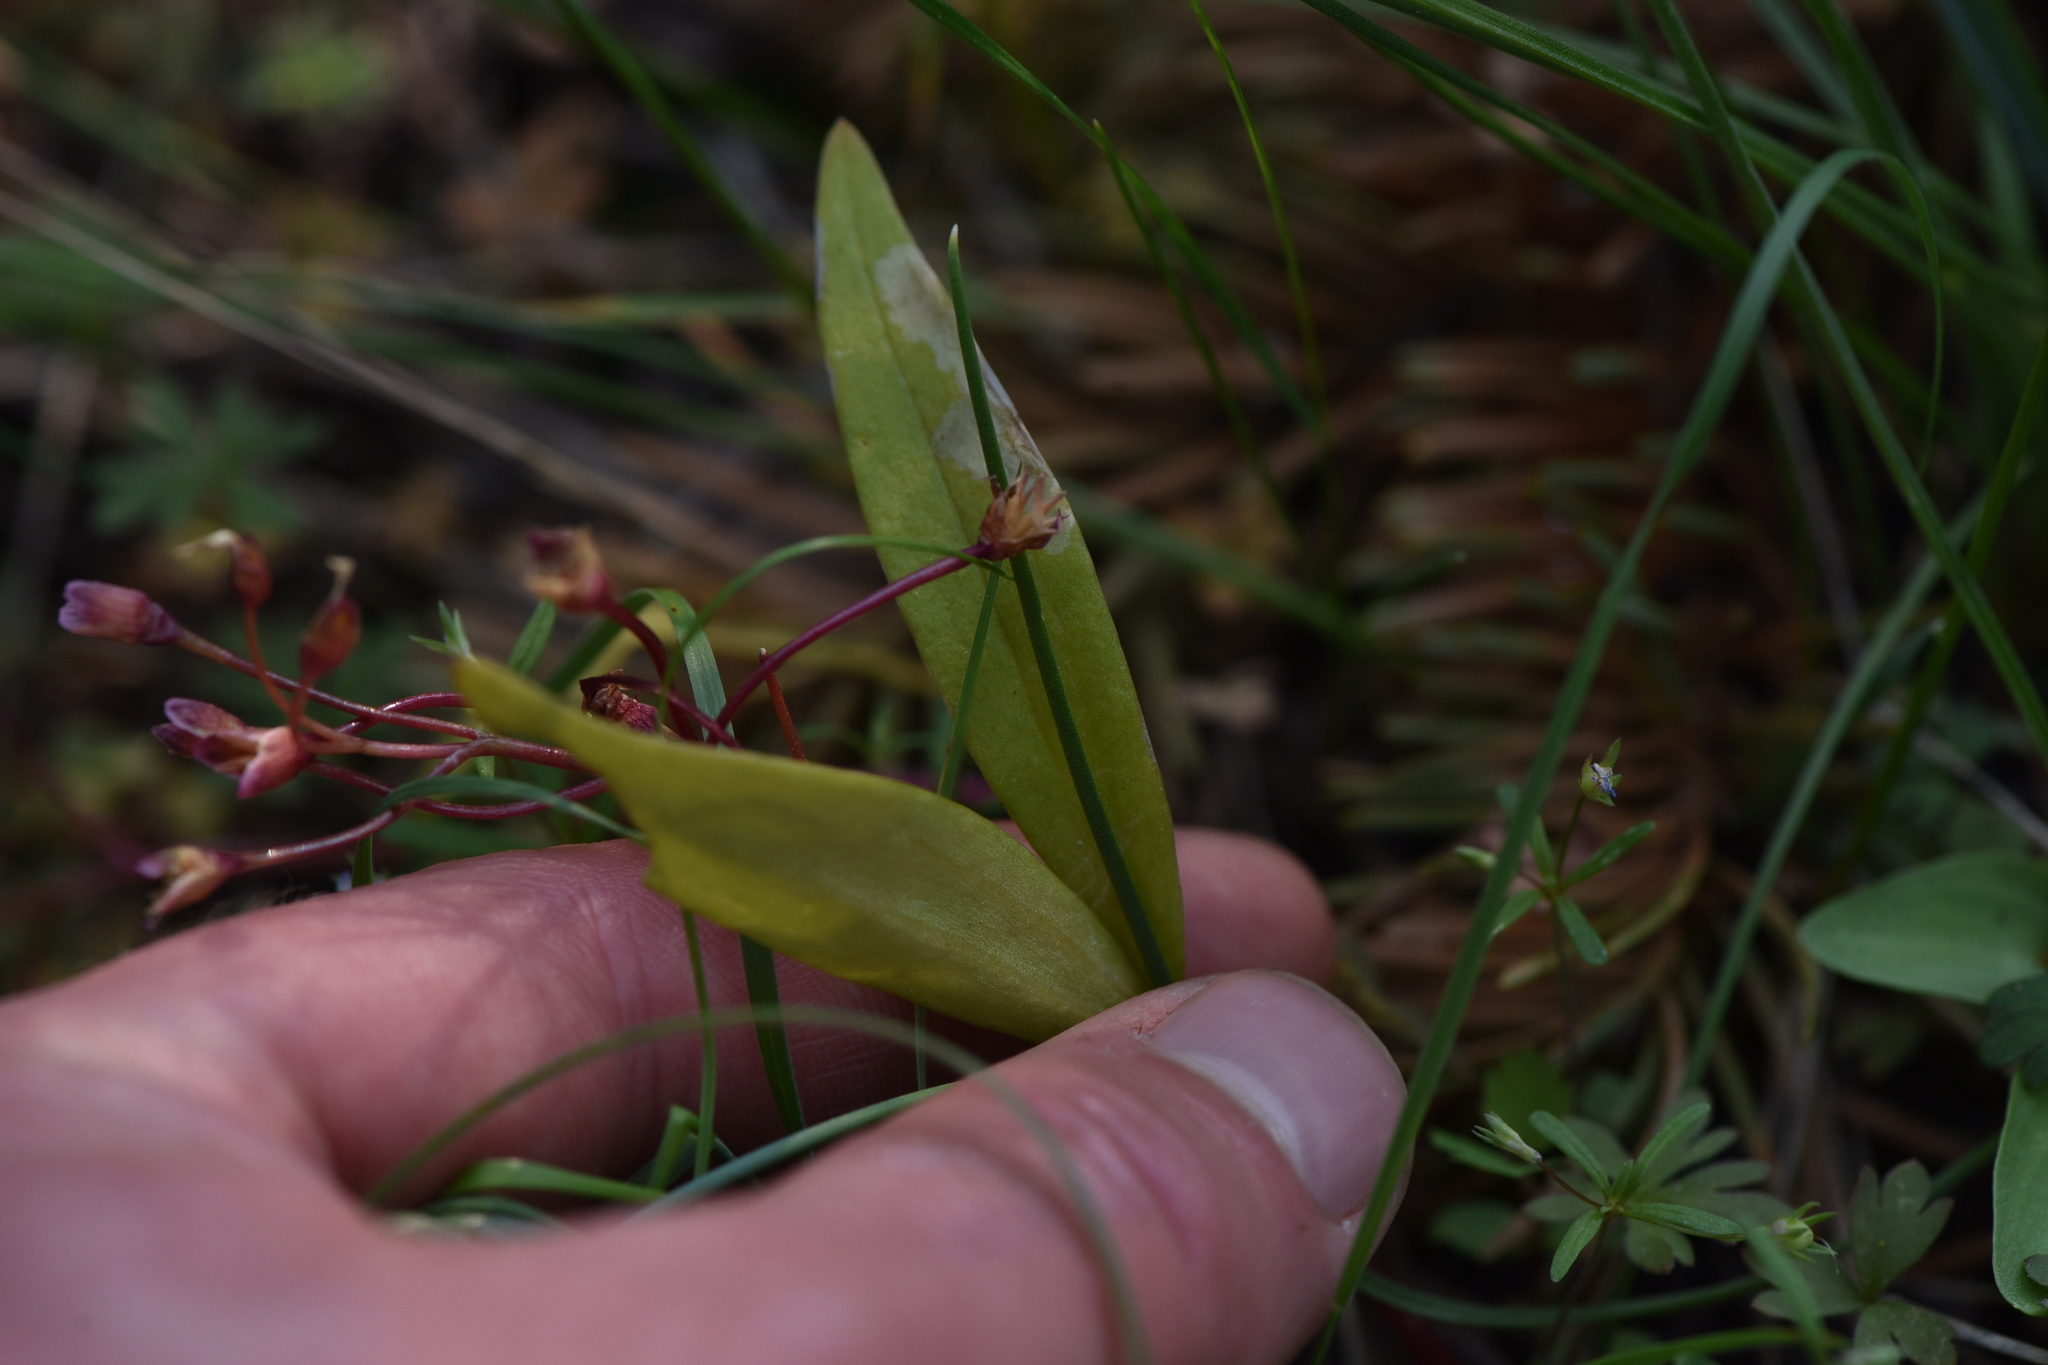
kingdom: Plantae
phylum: Tracheophyta
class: Magnoliopsida
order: Caryophyllales
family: Montiaceae
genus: Claytonia
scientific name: Claytonia lanceolata
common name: Western spring-beauty
